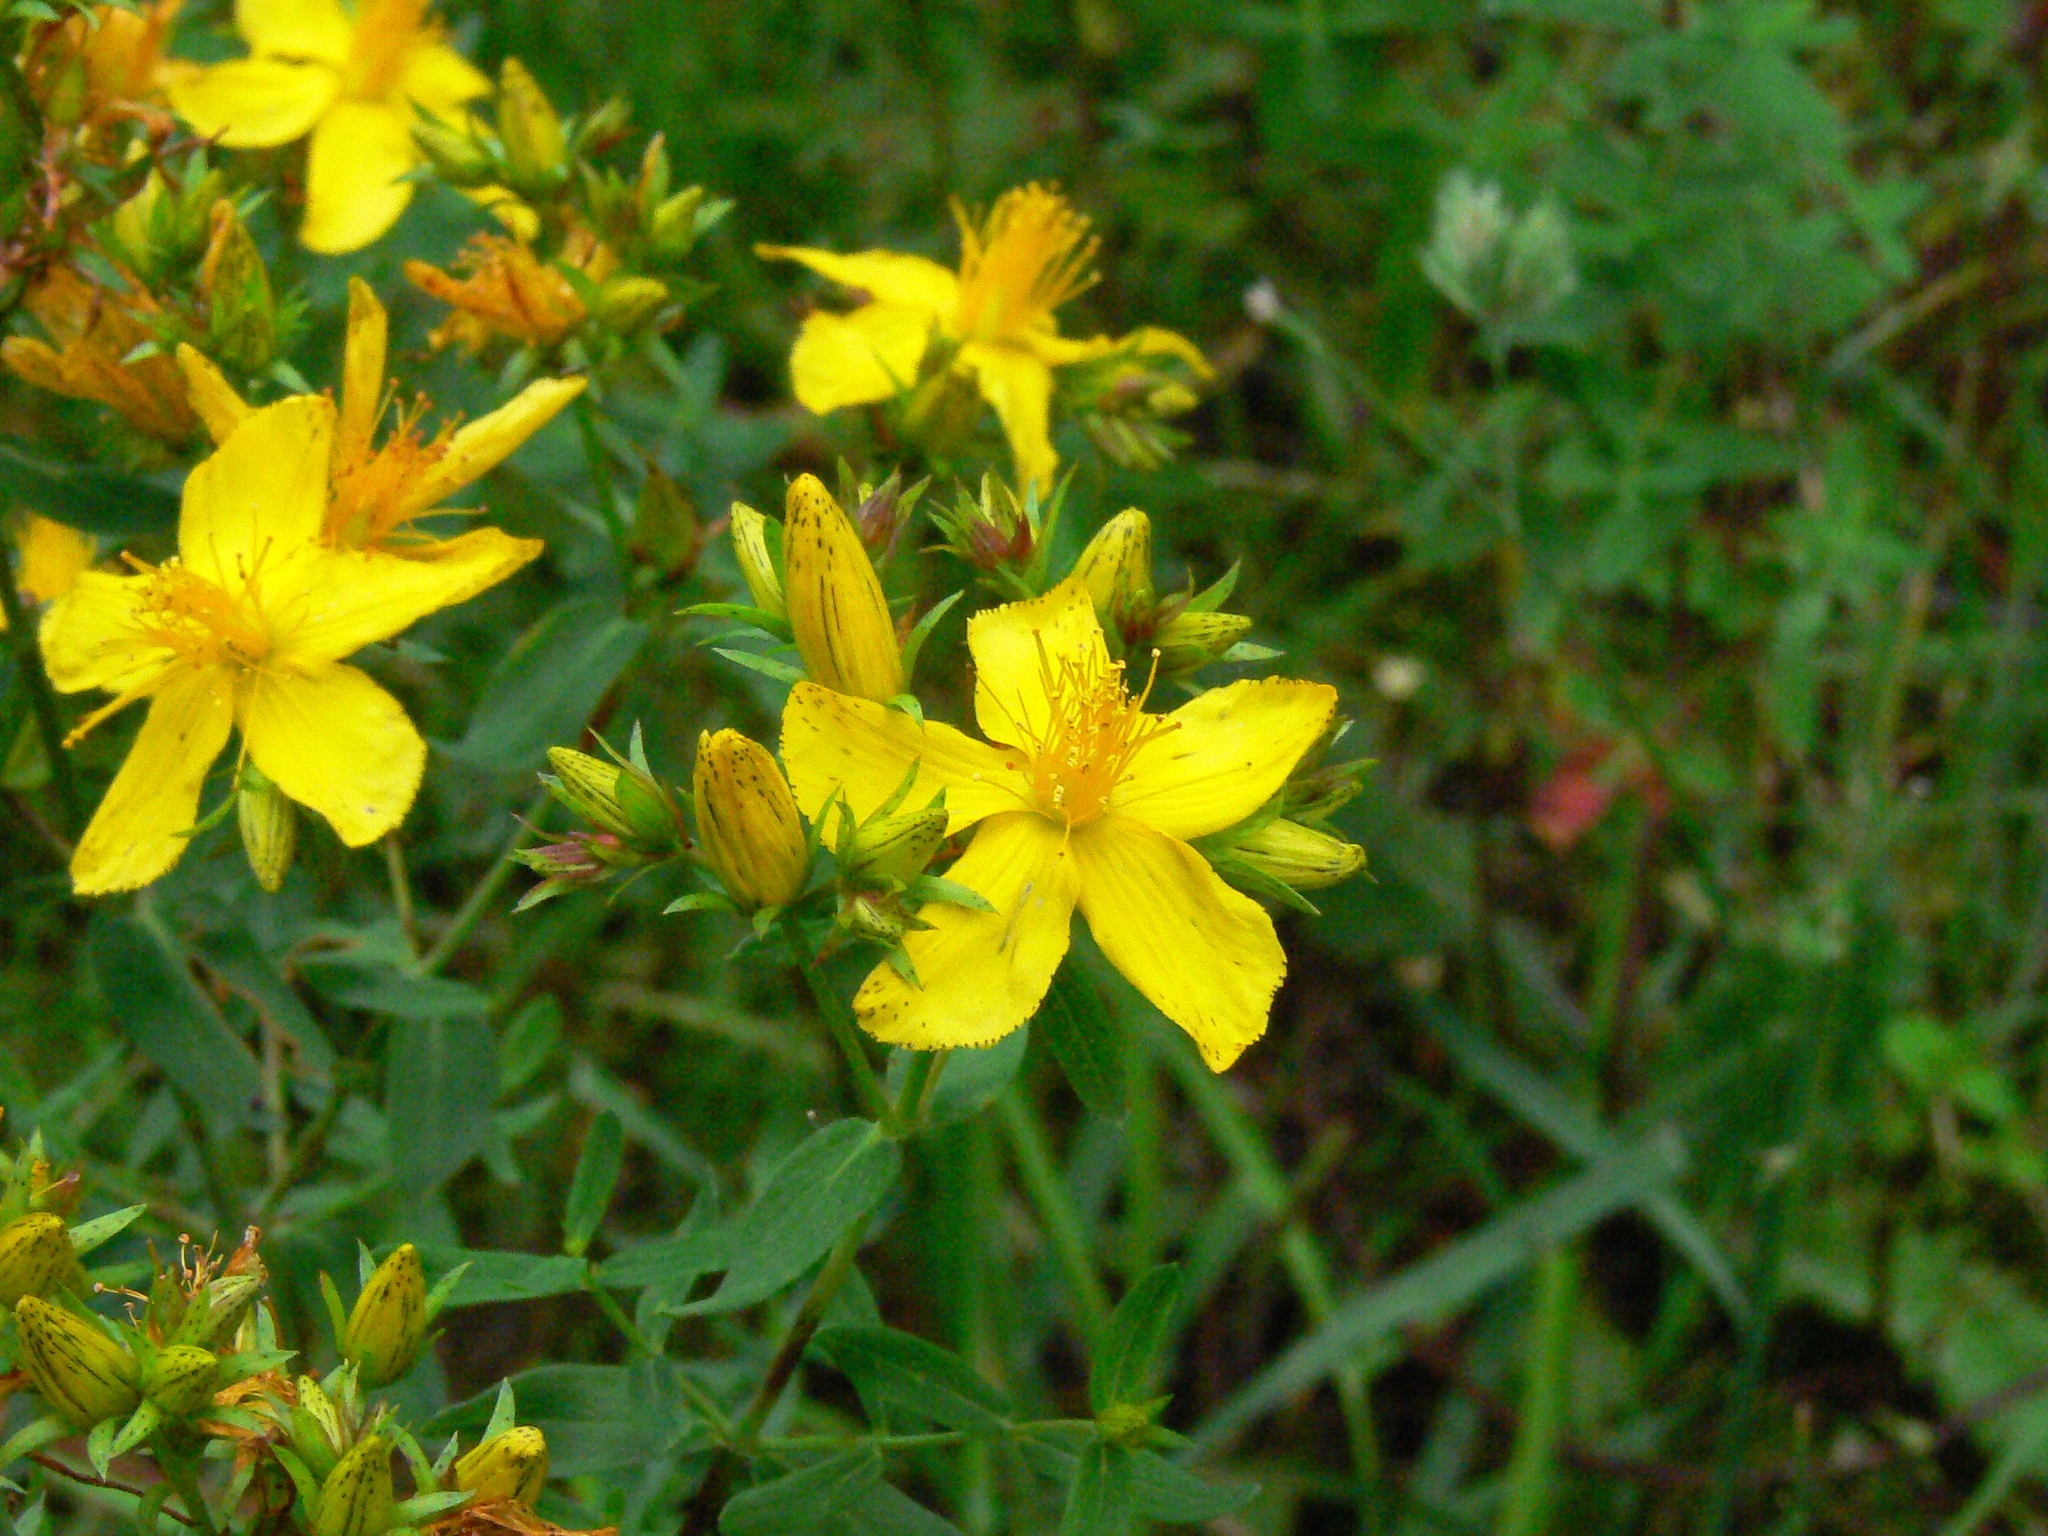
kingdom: Plantae
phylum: Tracheophyta
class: Magnoliopsida
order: Malpighiales
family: Hypericaceae
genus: Hypericum
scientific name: Hypericum perforatum
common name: Common st. johnswort
